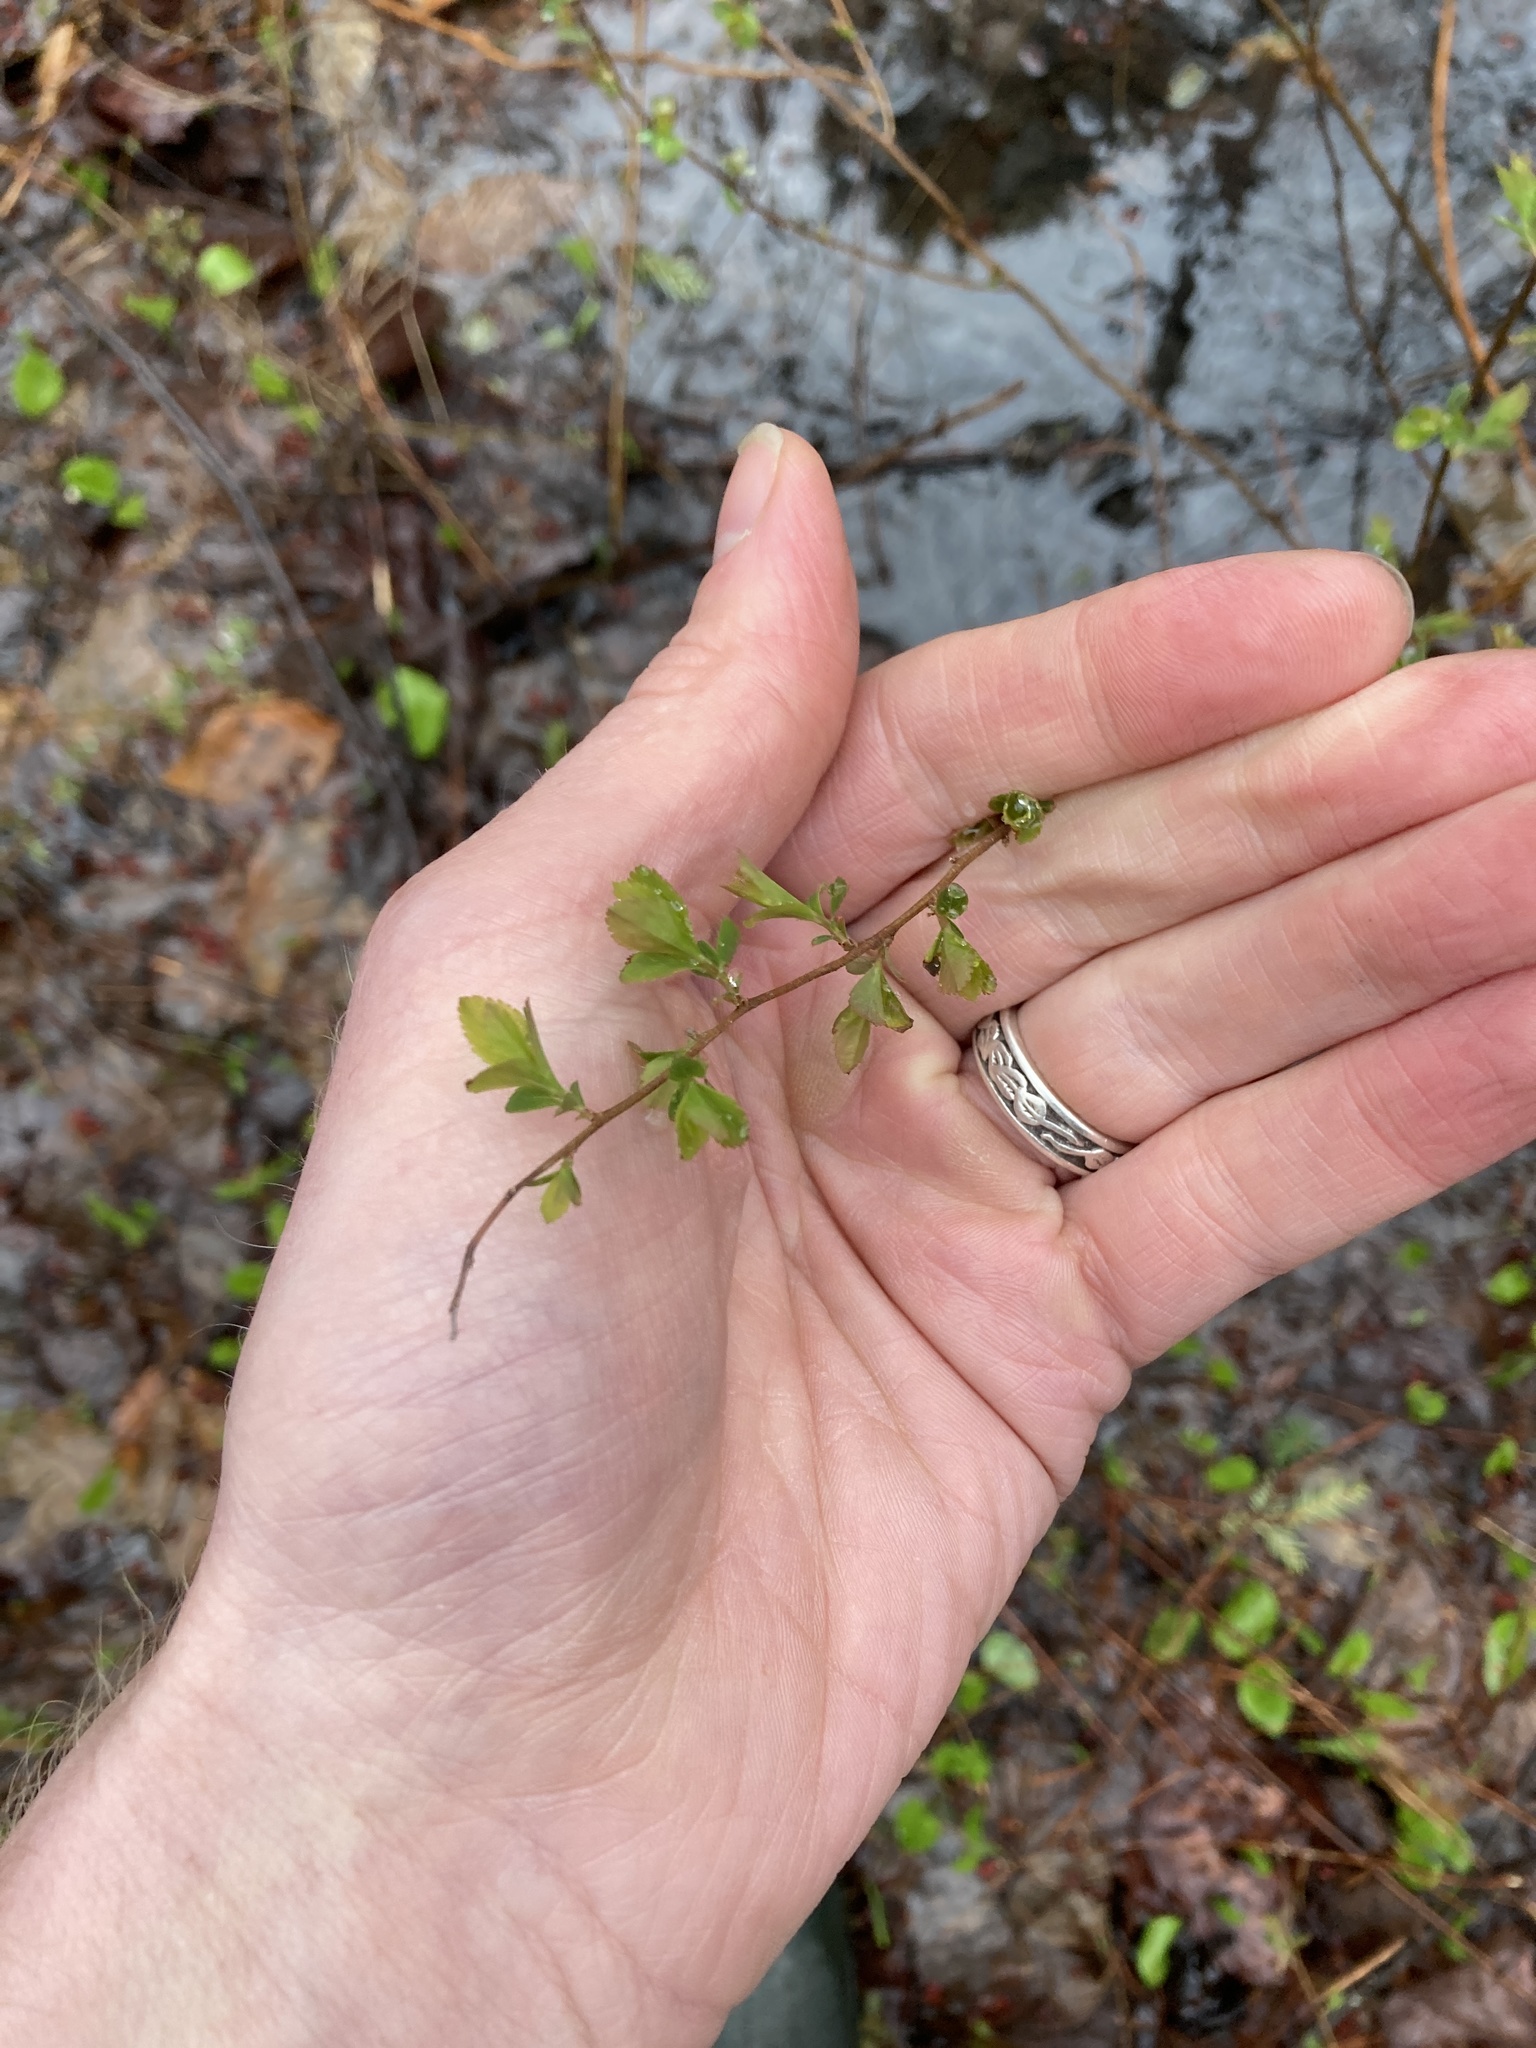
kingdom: Plantae
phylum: Tracheophyta
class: Magnoliopsida
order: Rosales
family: Rosaceae
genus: Spiraea
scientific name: Spiraea alba
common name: Pale bridewort
